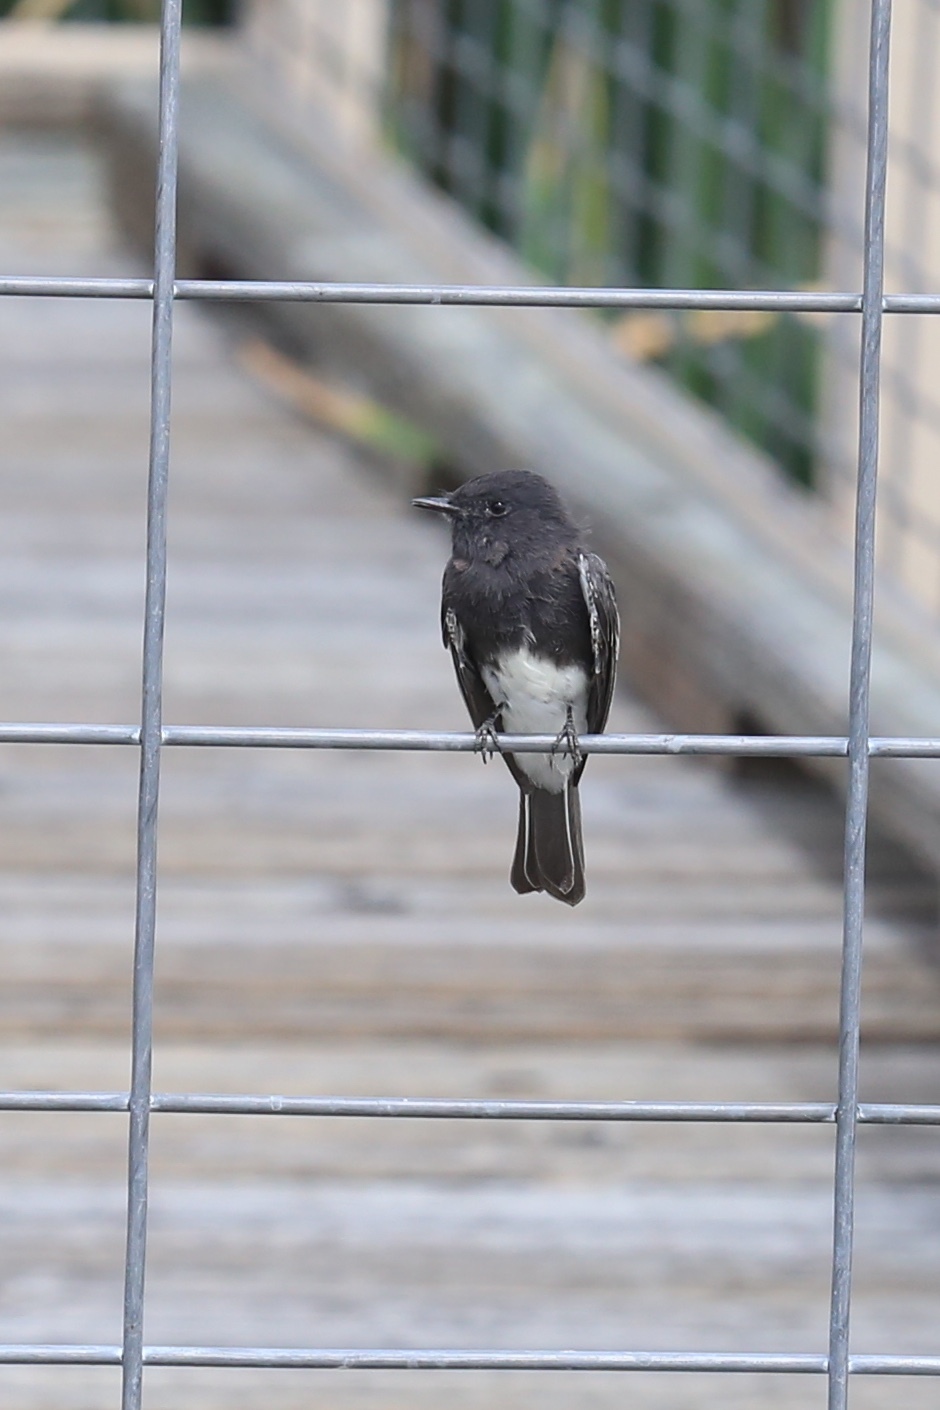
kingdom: Animalia
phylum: Chordata
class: Aves
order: Passeriformes
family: Tyrannidae
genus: Sayornis
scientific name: Sayornis nigricans
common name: Black phoebe
